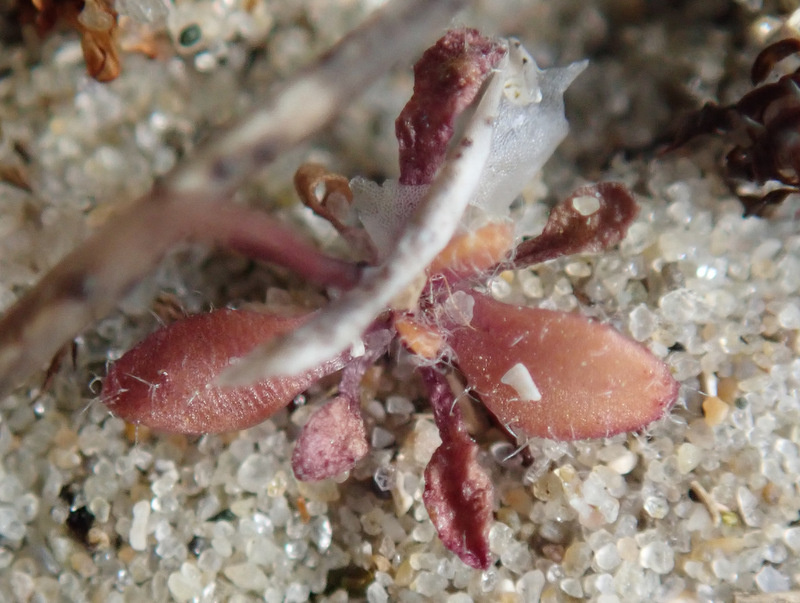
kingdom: Plantae
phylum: Tracheophyta
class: Magnoliopsida
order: Brassicales
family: Brassicaceae
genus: Draba
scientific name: Draba verna
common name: Spring draba
